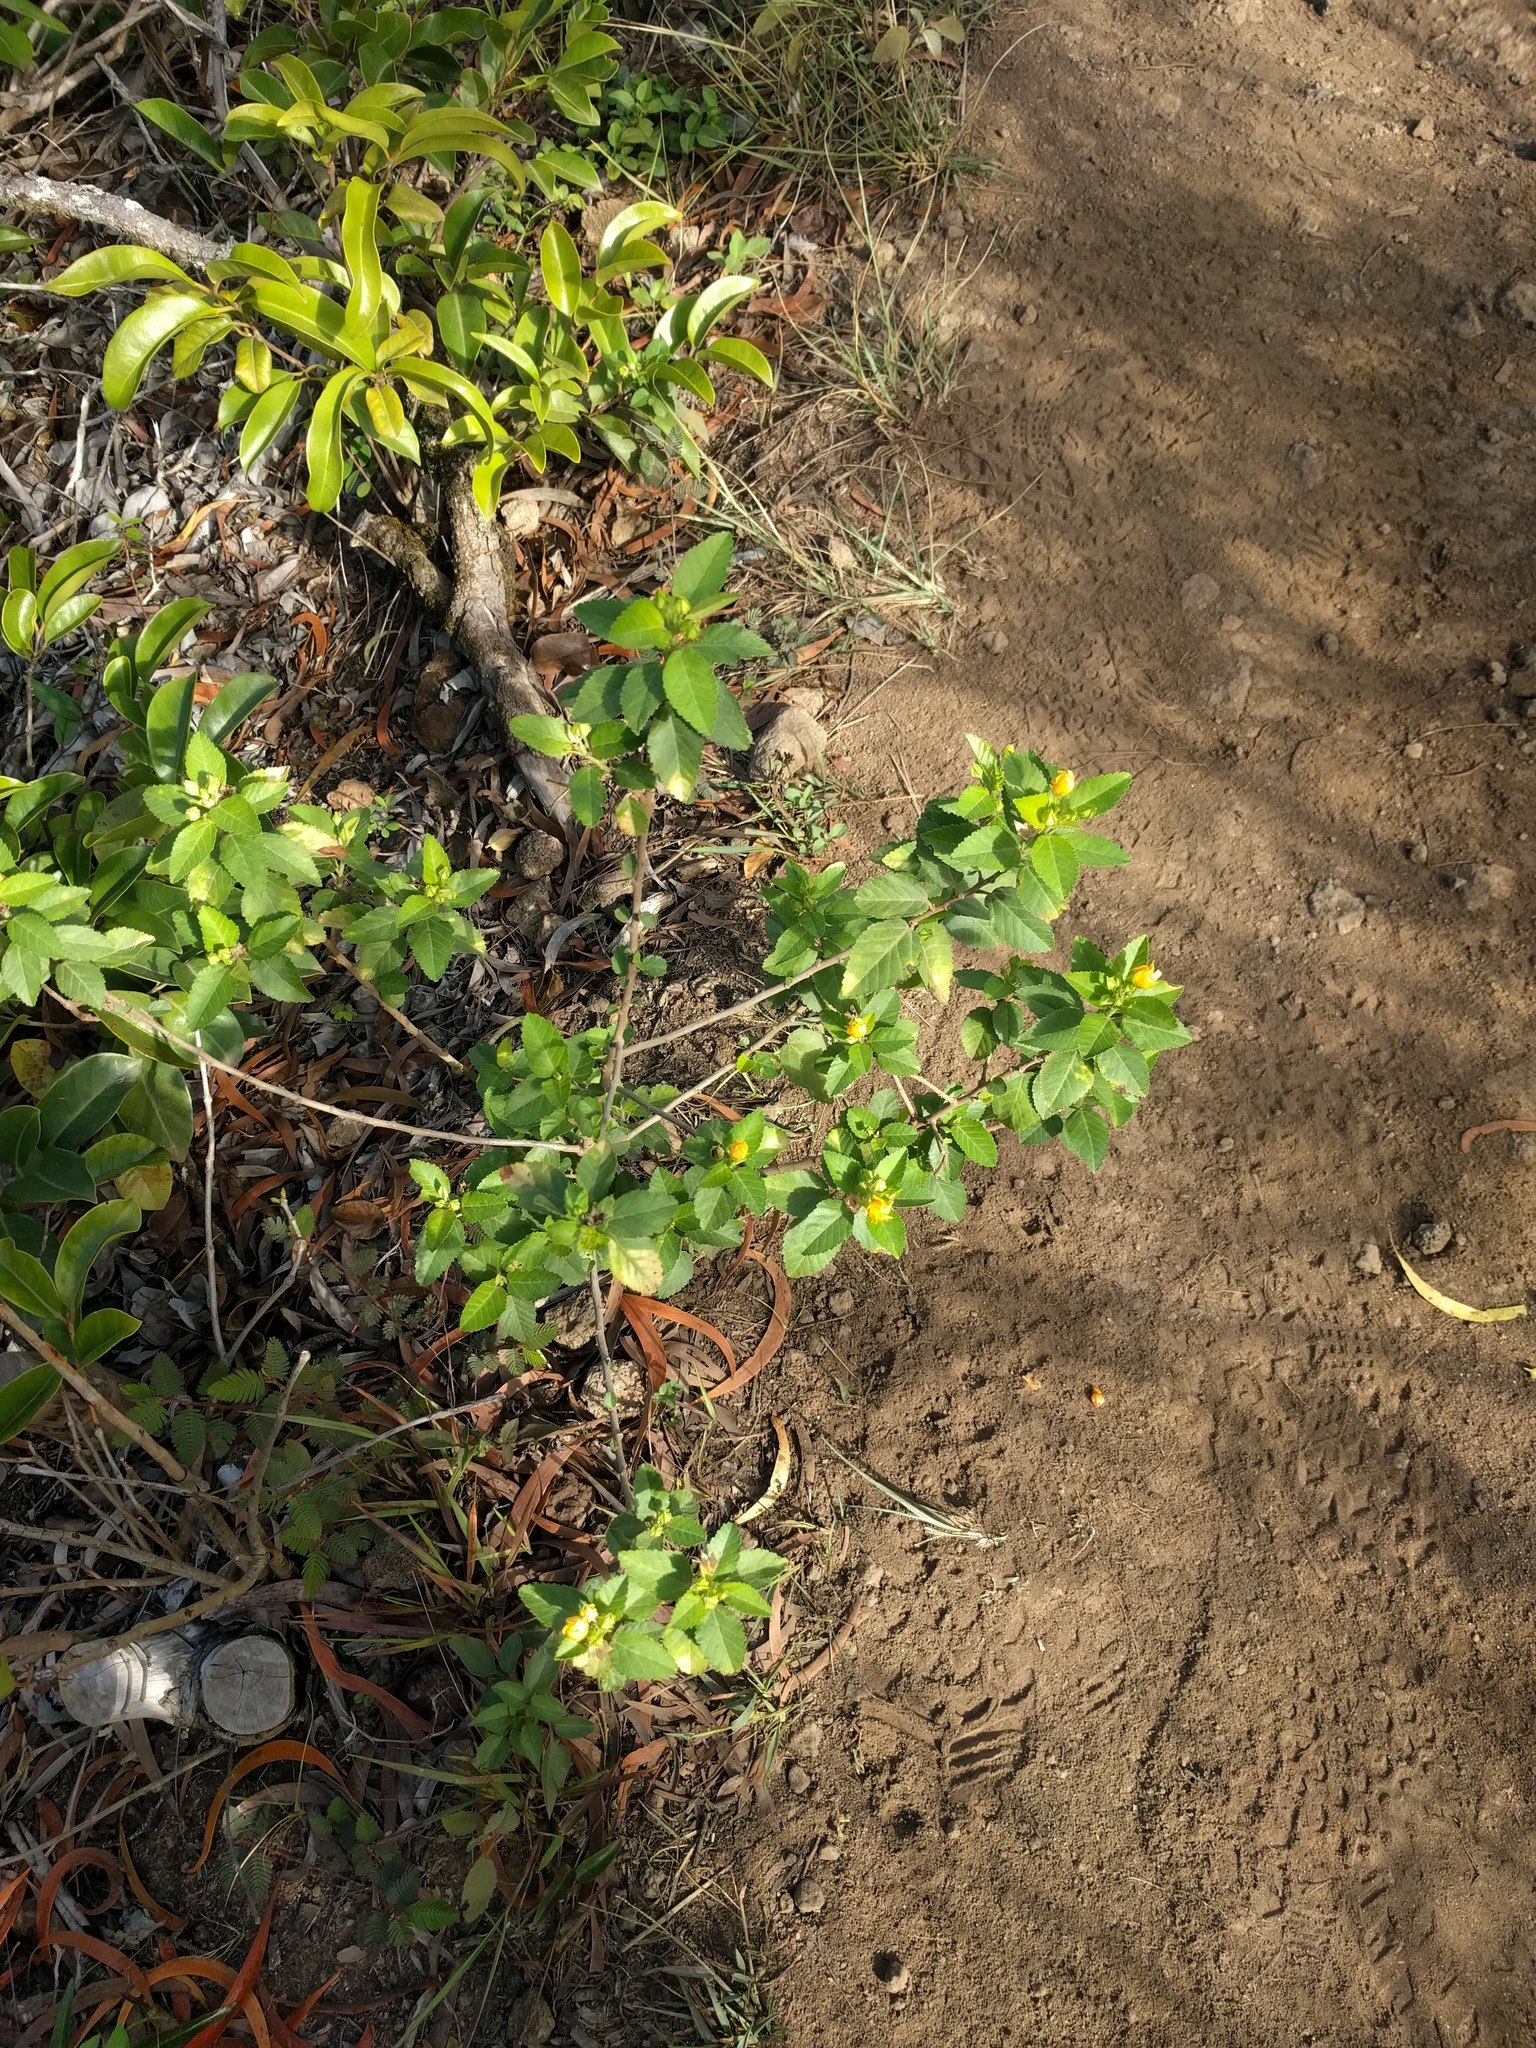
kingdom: Plantae
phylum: Tracheophyta
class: Magnoliopsida
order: Malvales
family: Malvaceae
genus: Sida
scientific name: Sida fallax
